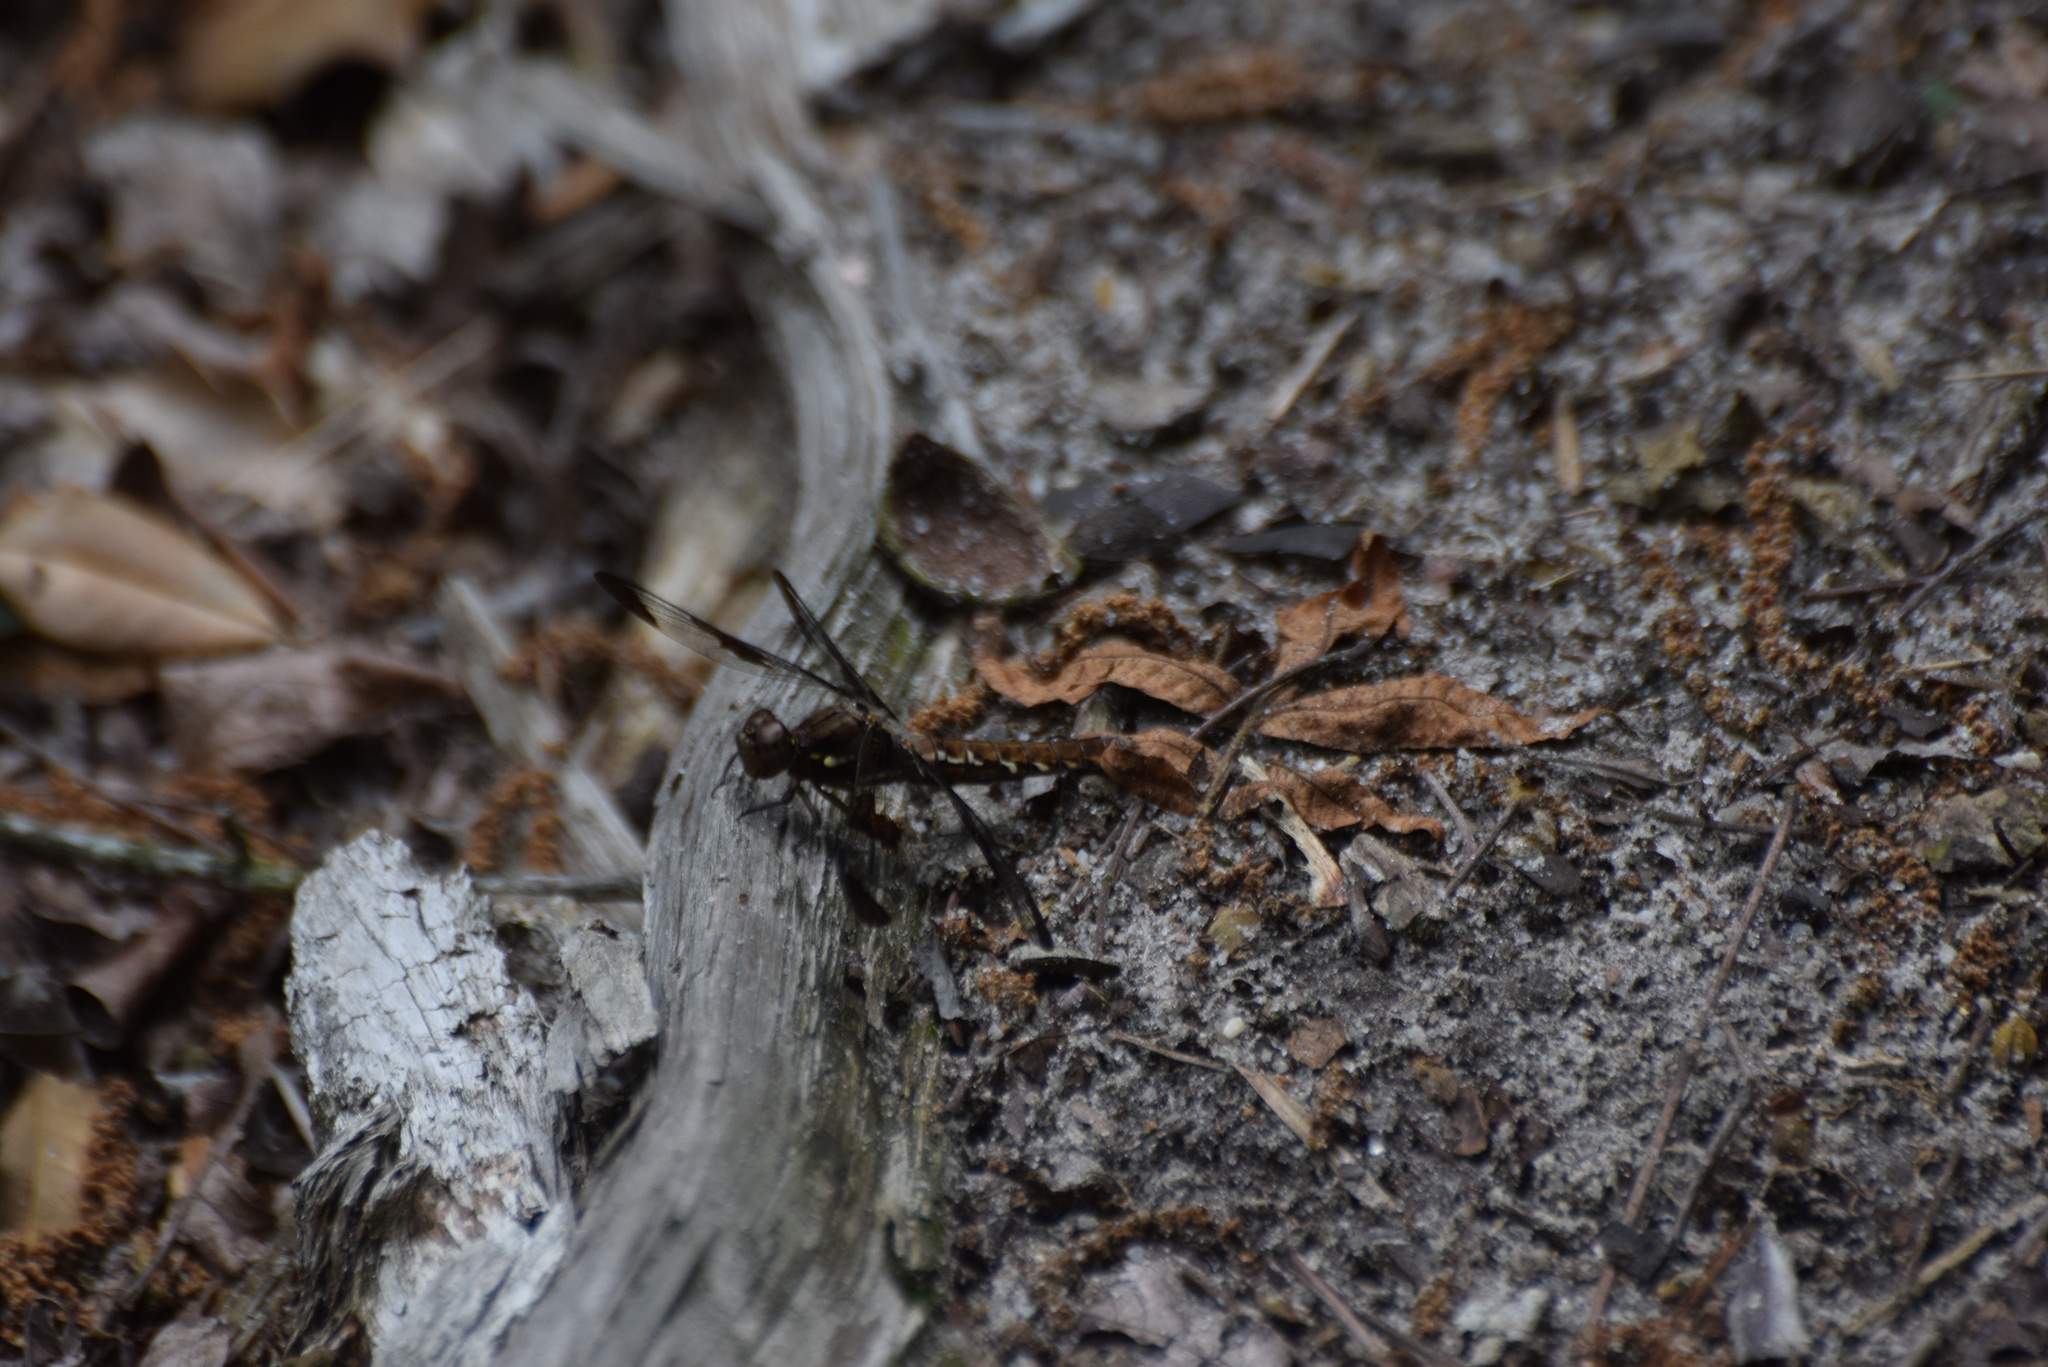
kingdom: Animalia
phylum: Arthropoda
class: Insecta
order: Odonata
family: Libellulidae
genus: Plathemis
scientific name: Plathemis lydia
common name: Common whitetail
